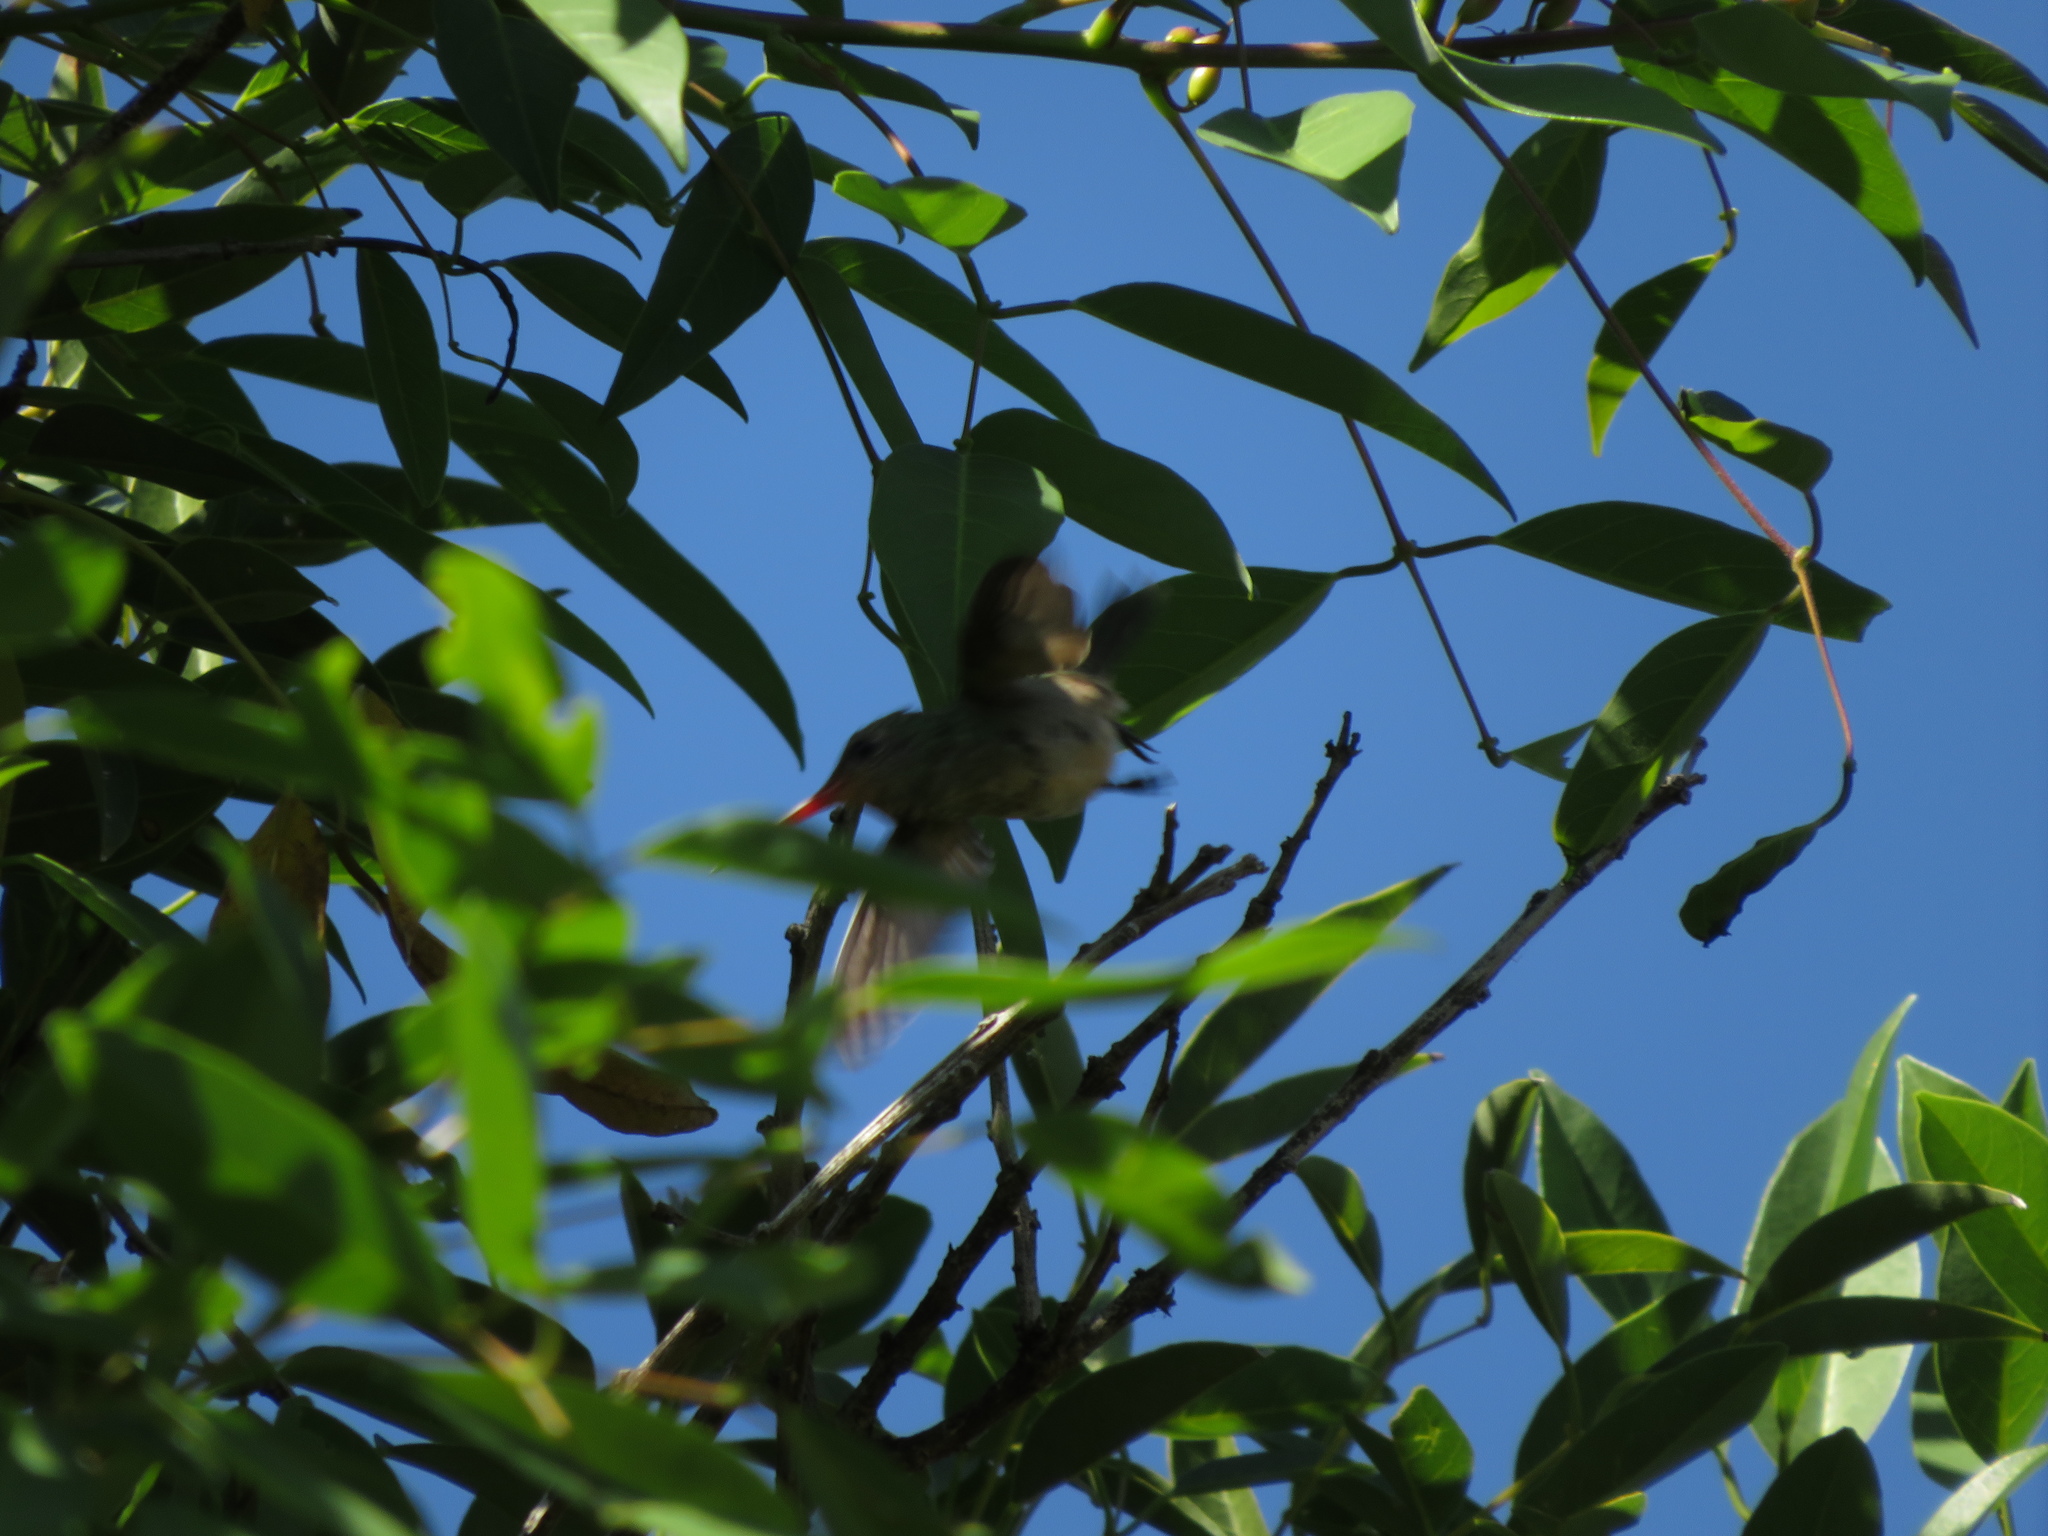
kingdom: Animalia
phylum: Chordata
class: Aves
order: Apodiformes
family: Trochilidae
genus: Hylocharis
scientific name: Hylocharis chrysura
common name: Gilded sapphire
